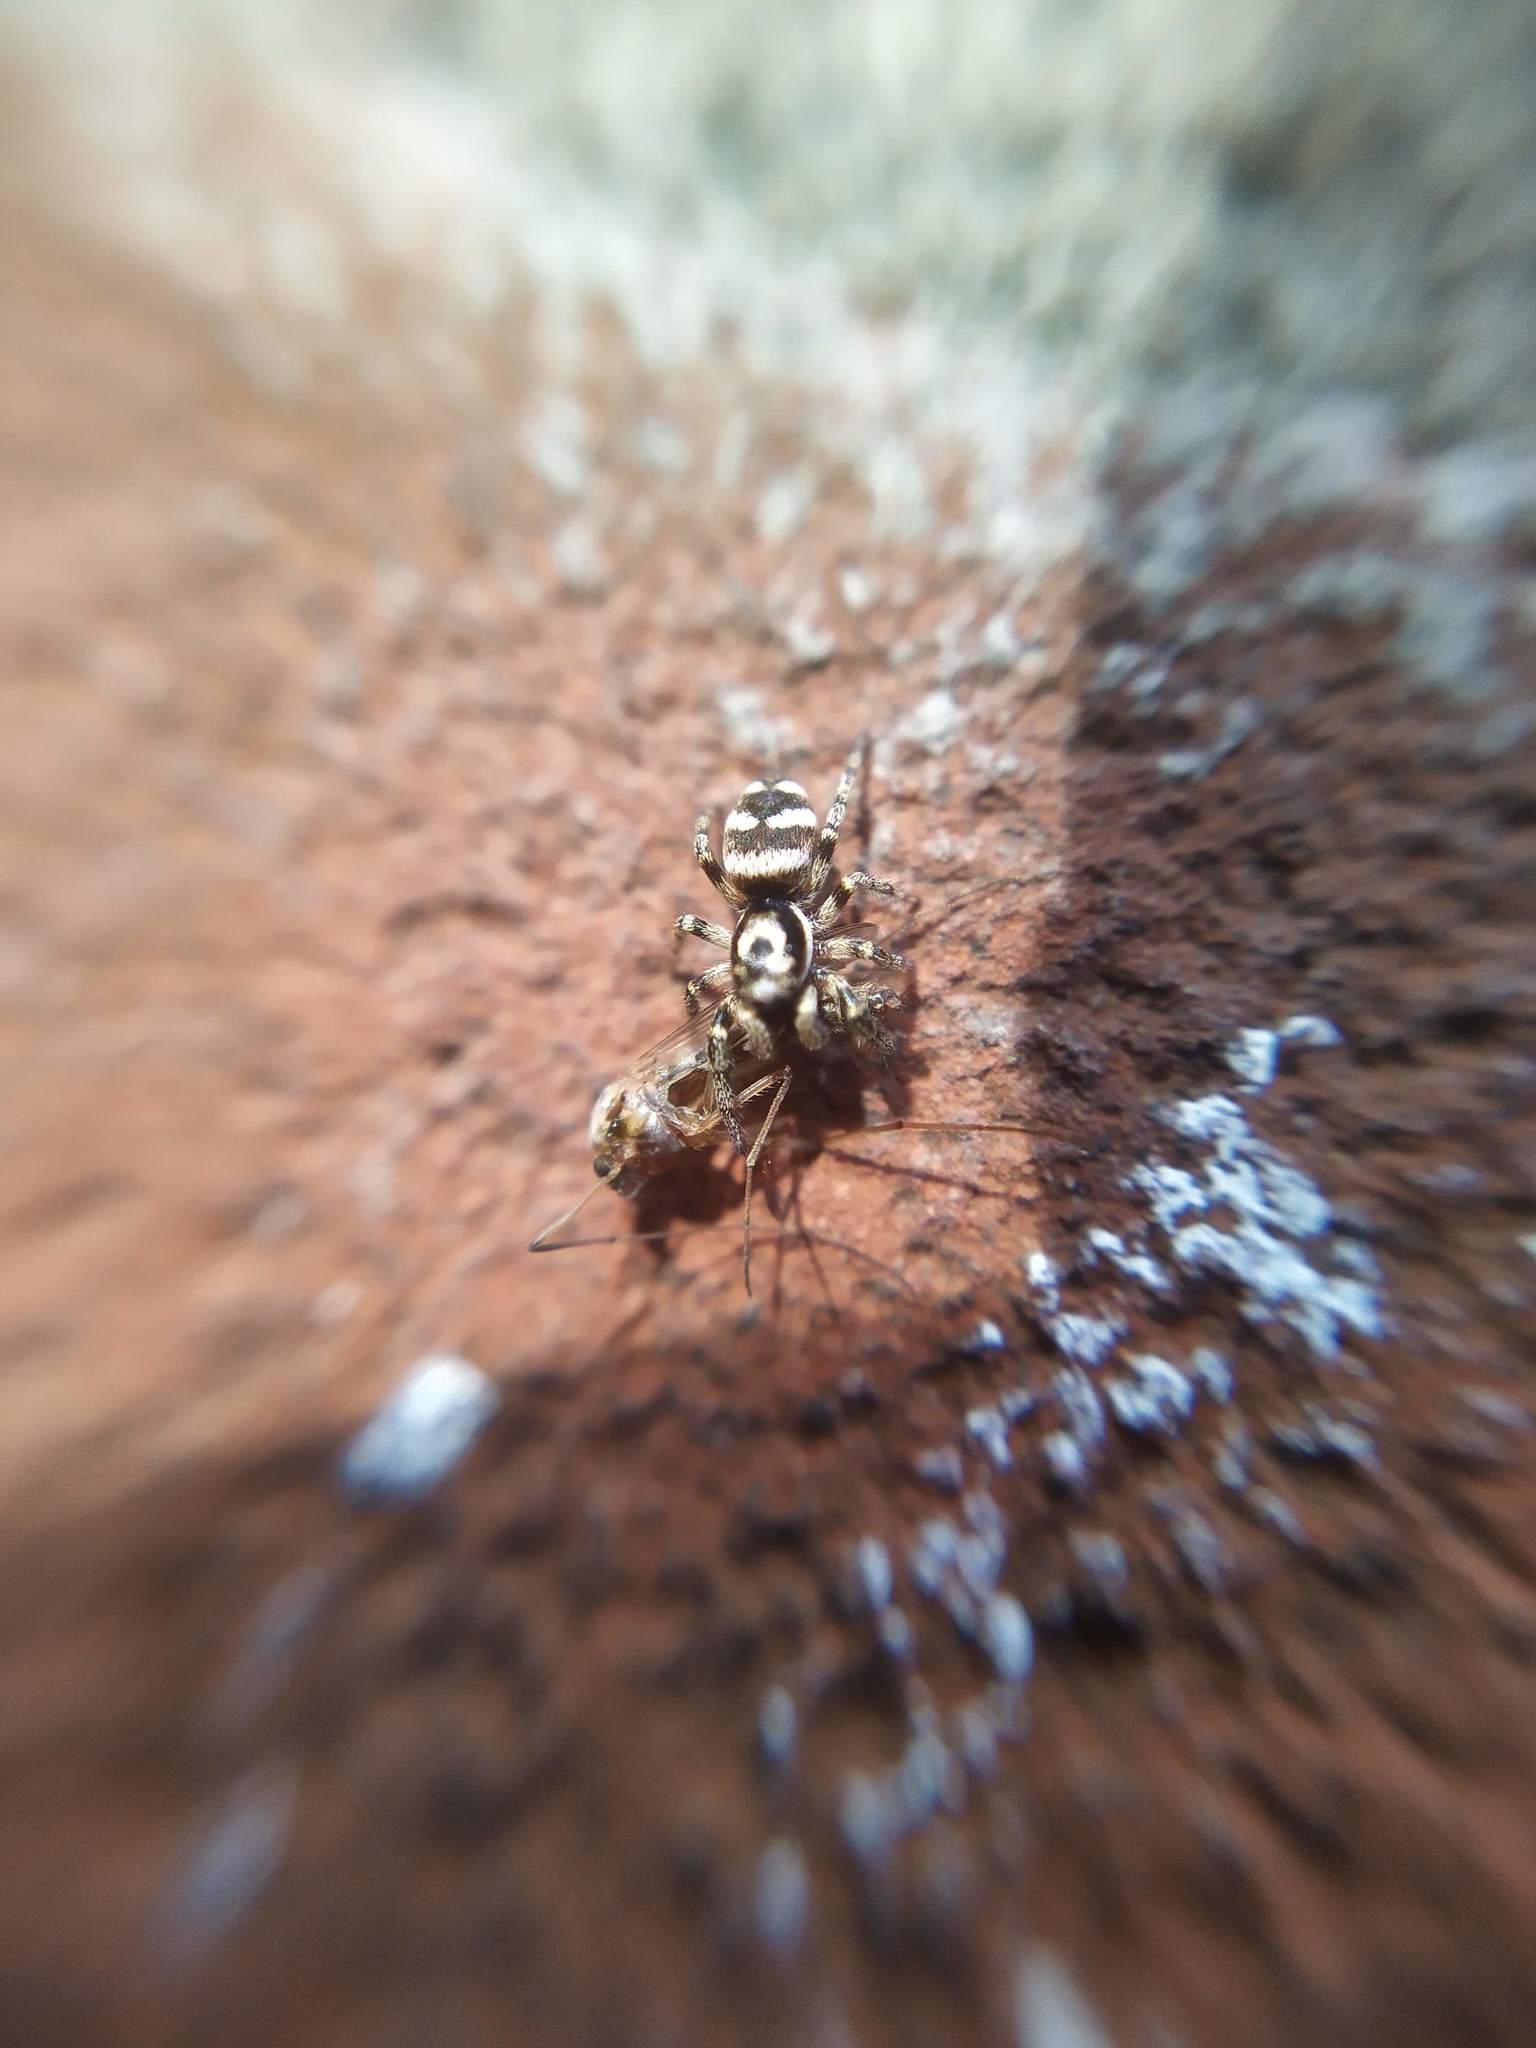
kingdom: Animalia
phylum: Arthropoda
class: Arachnida
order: Araneae
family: Salticidae
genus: Salticus
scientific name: Salticus scenicus
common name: Zebra jumper
